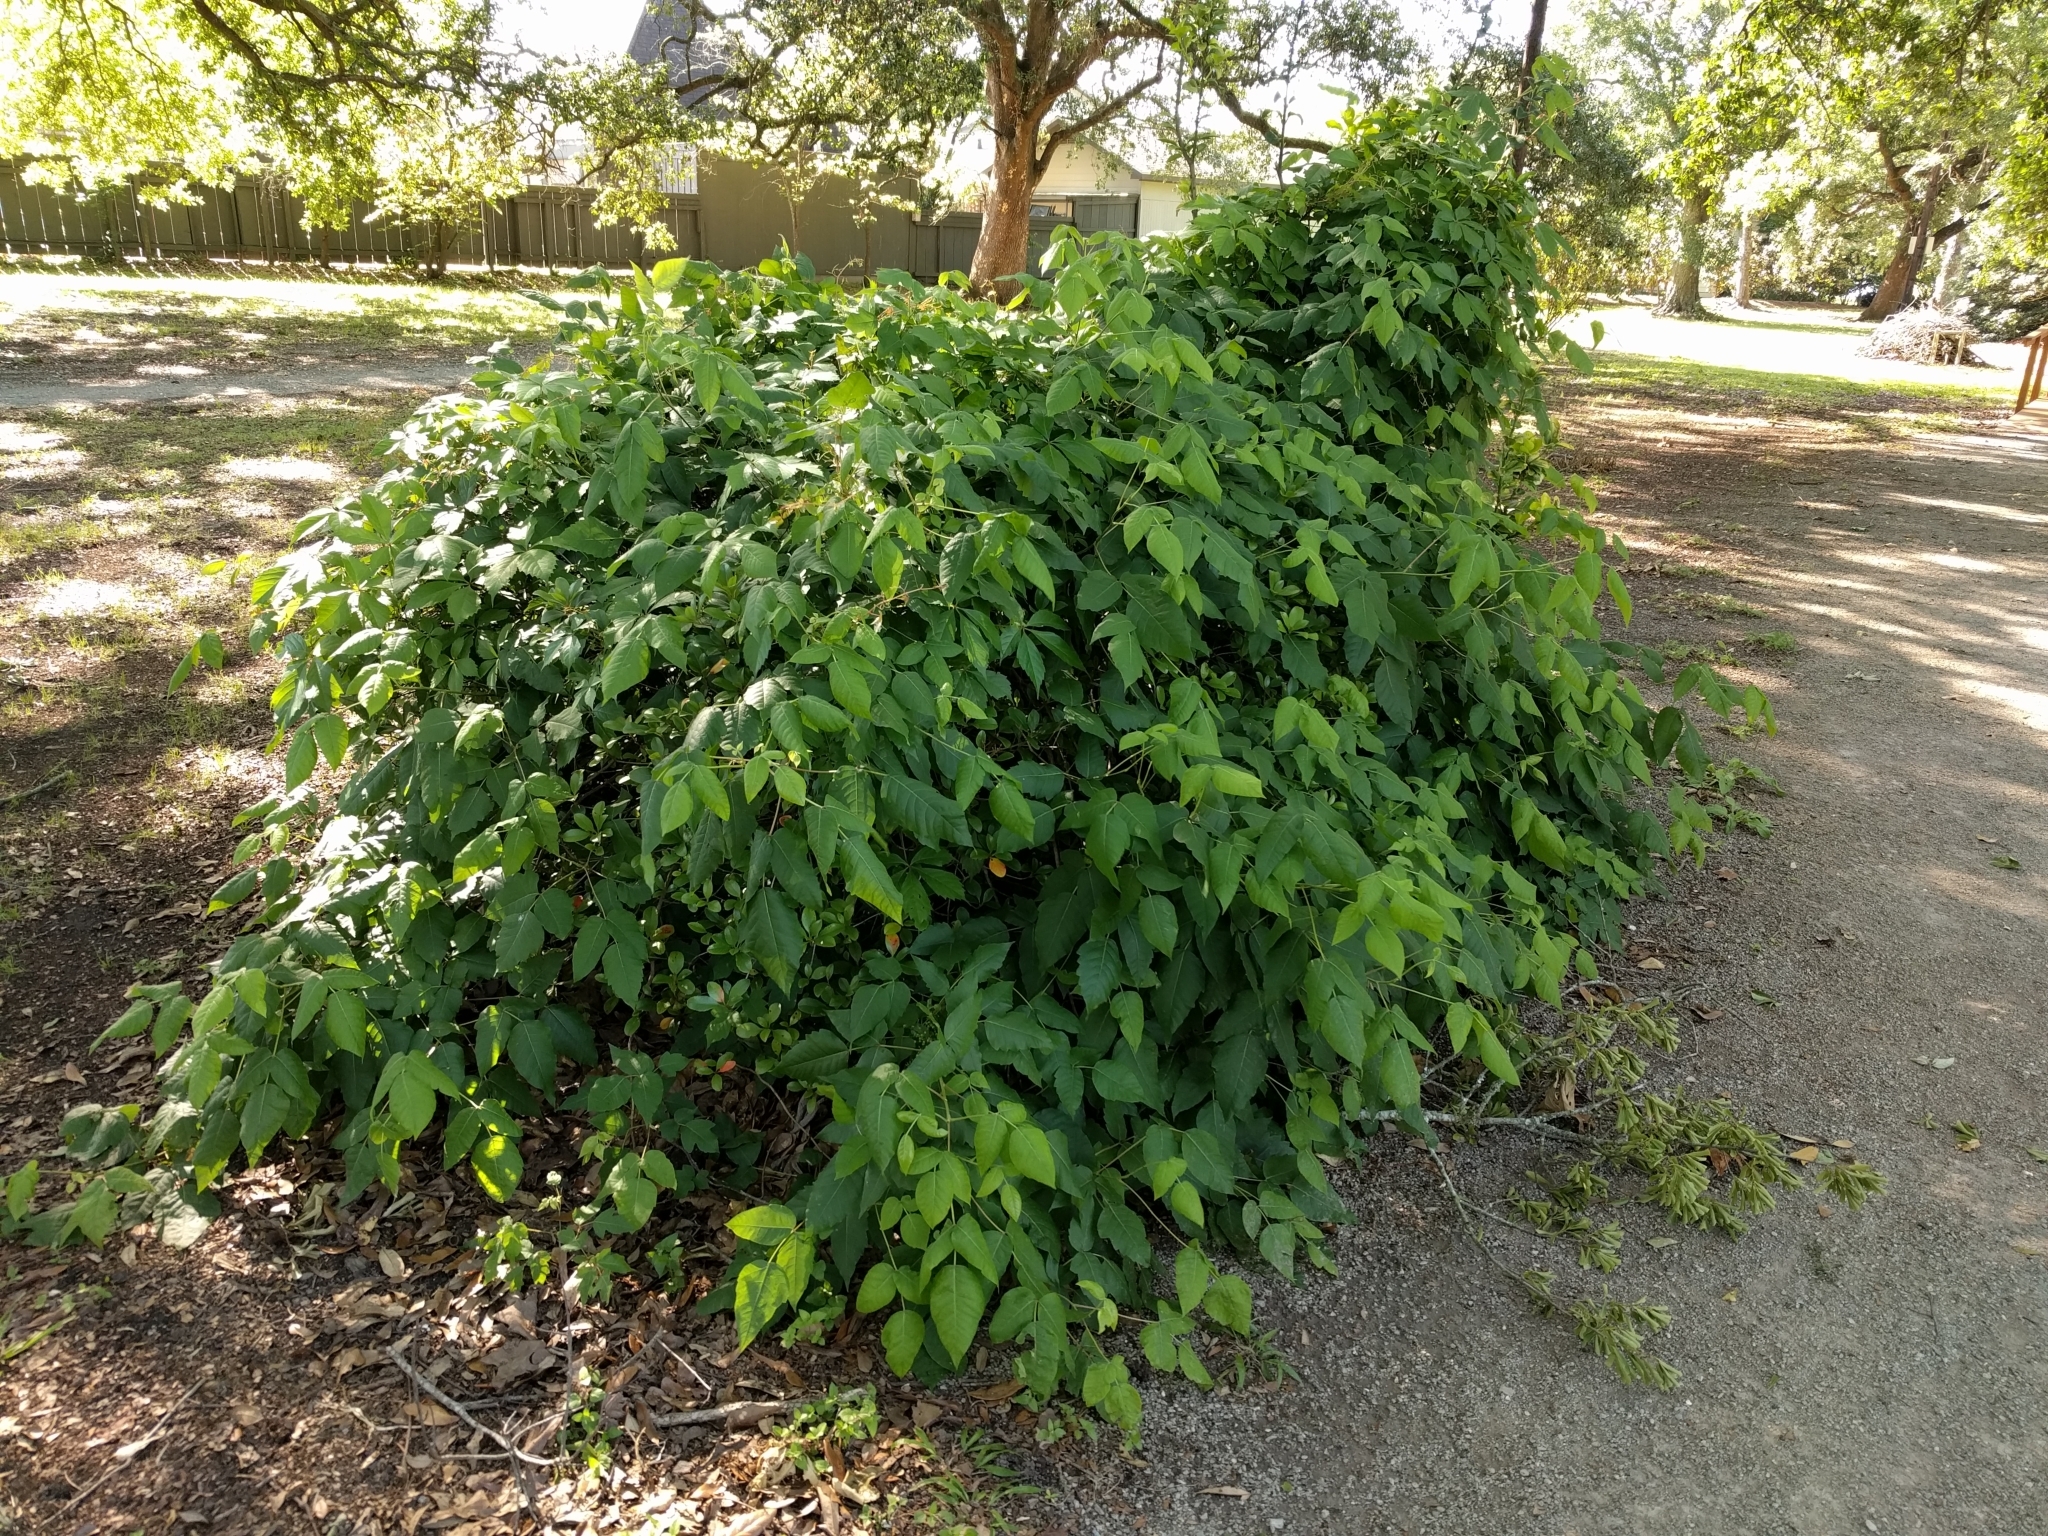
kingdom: Plantae
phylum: Tracheophyta
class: Magnoliopsida
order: Sapindales
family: Anacardiaceae
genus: Toxicodendron
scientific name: Toxicodendron radicans
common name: Poison ivy
